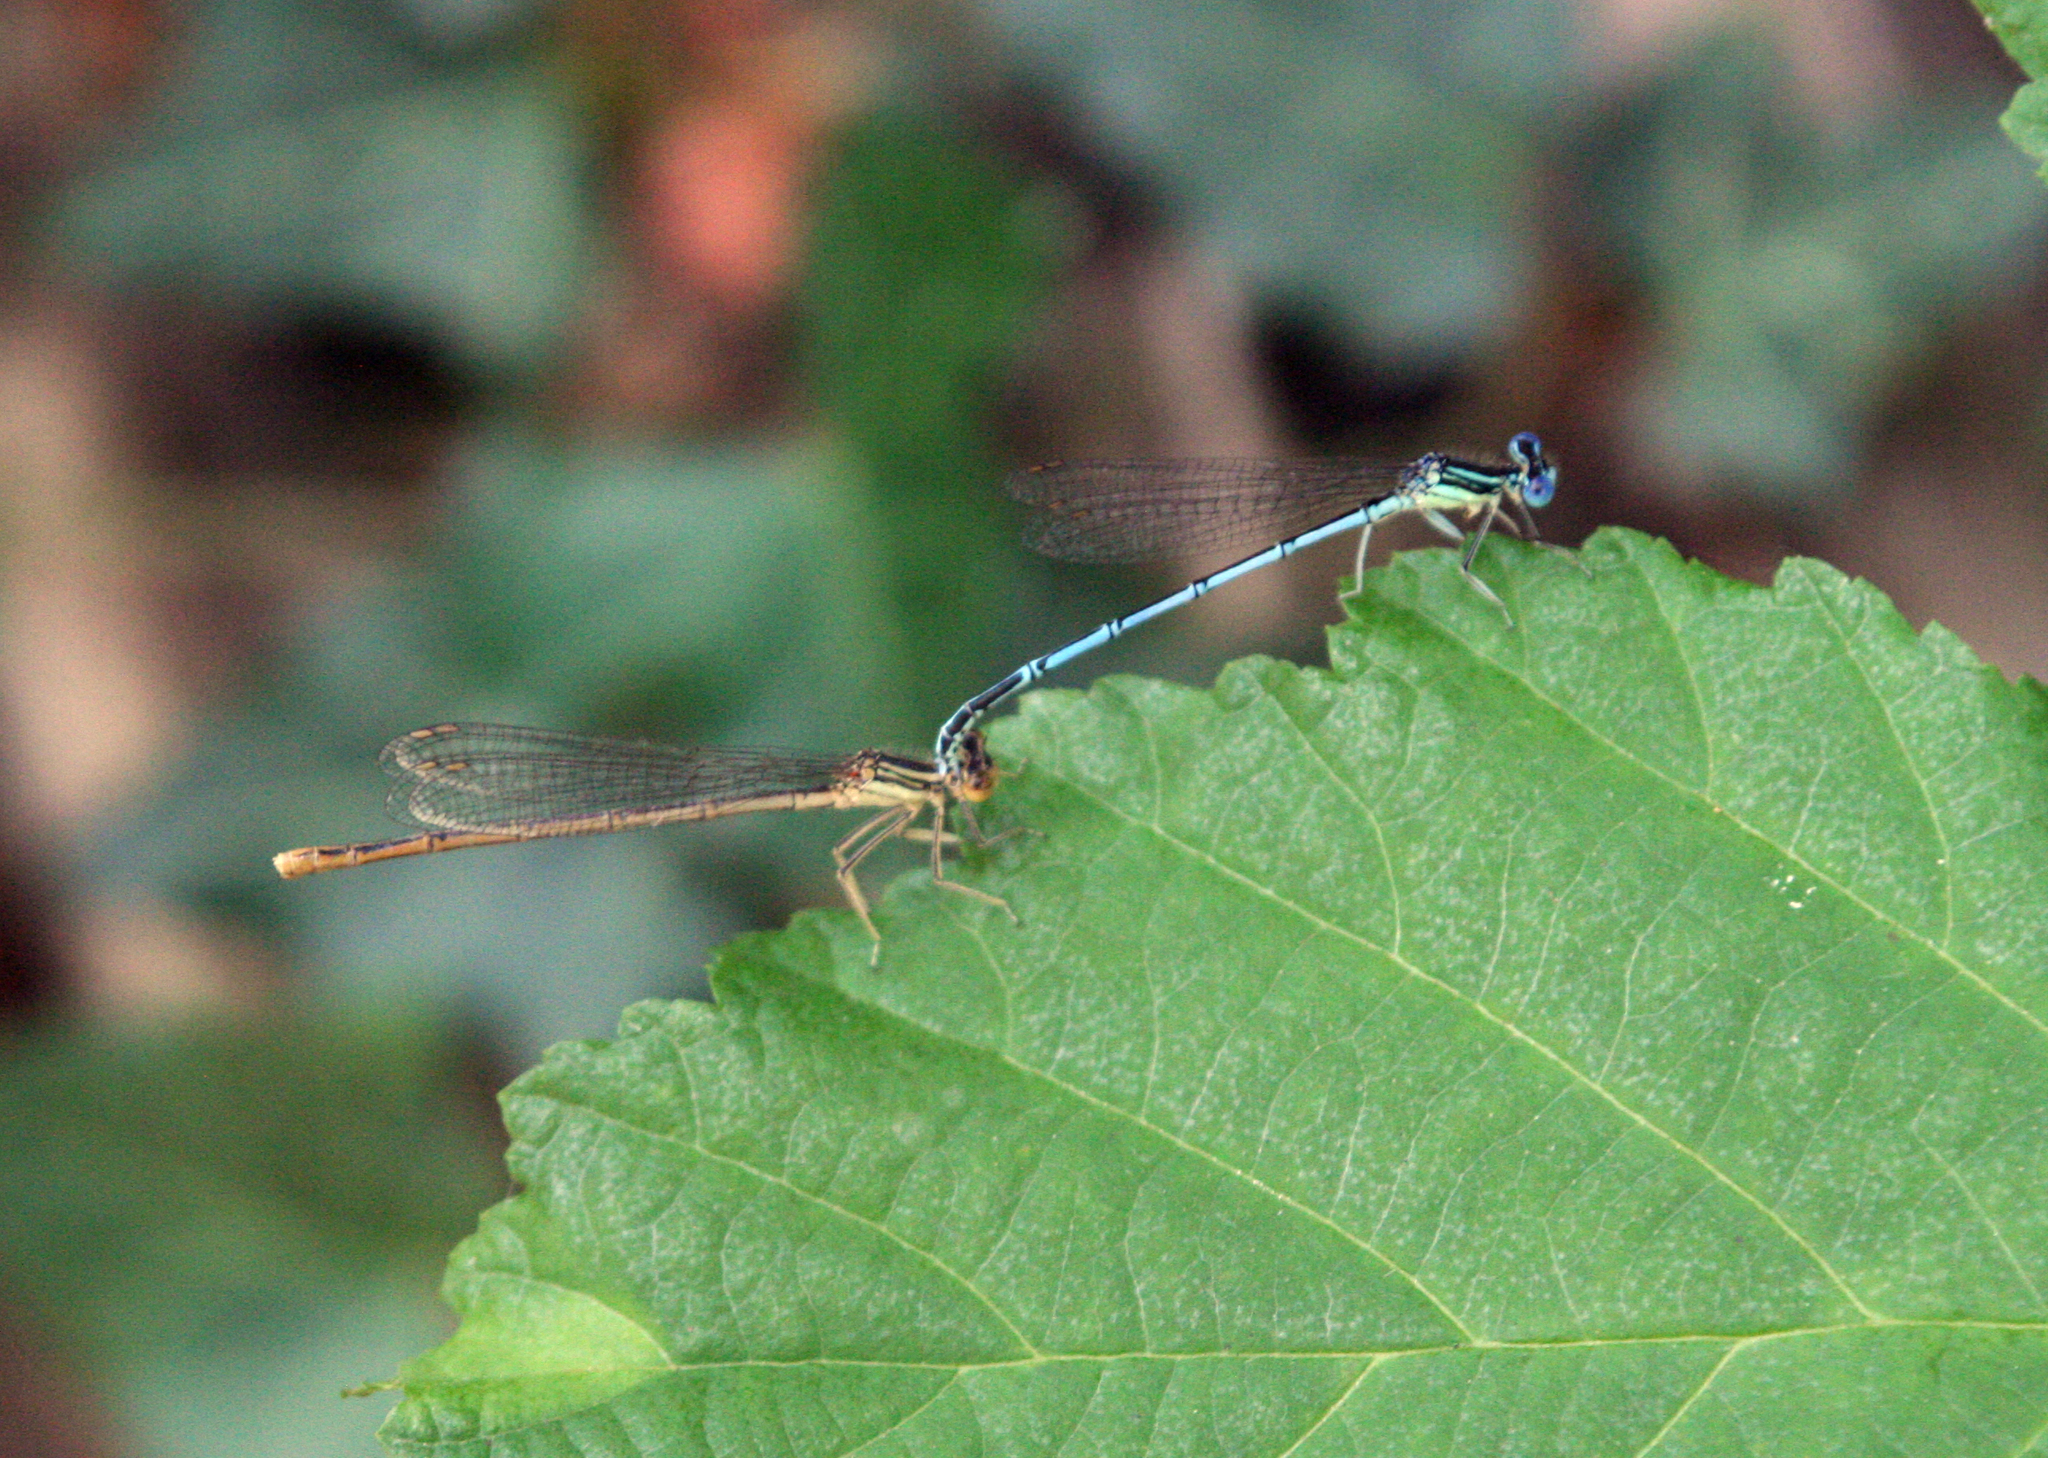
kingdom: Animalia
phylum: Arthropoda
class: Insecta
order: Odonata
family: Platycnemididae
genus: Platycnemis
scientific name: Platycnemis pennipes
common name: White-legged damselfly
